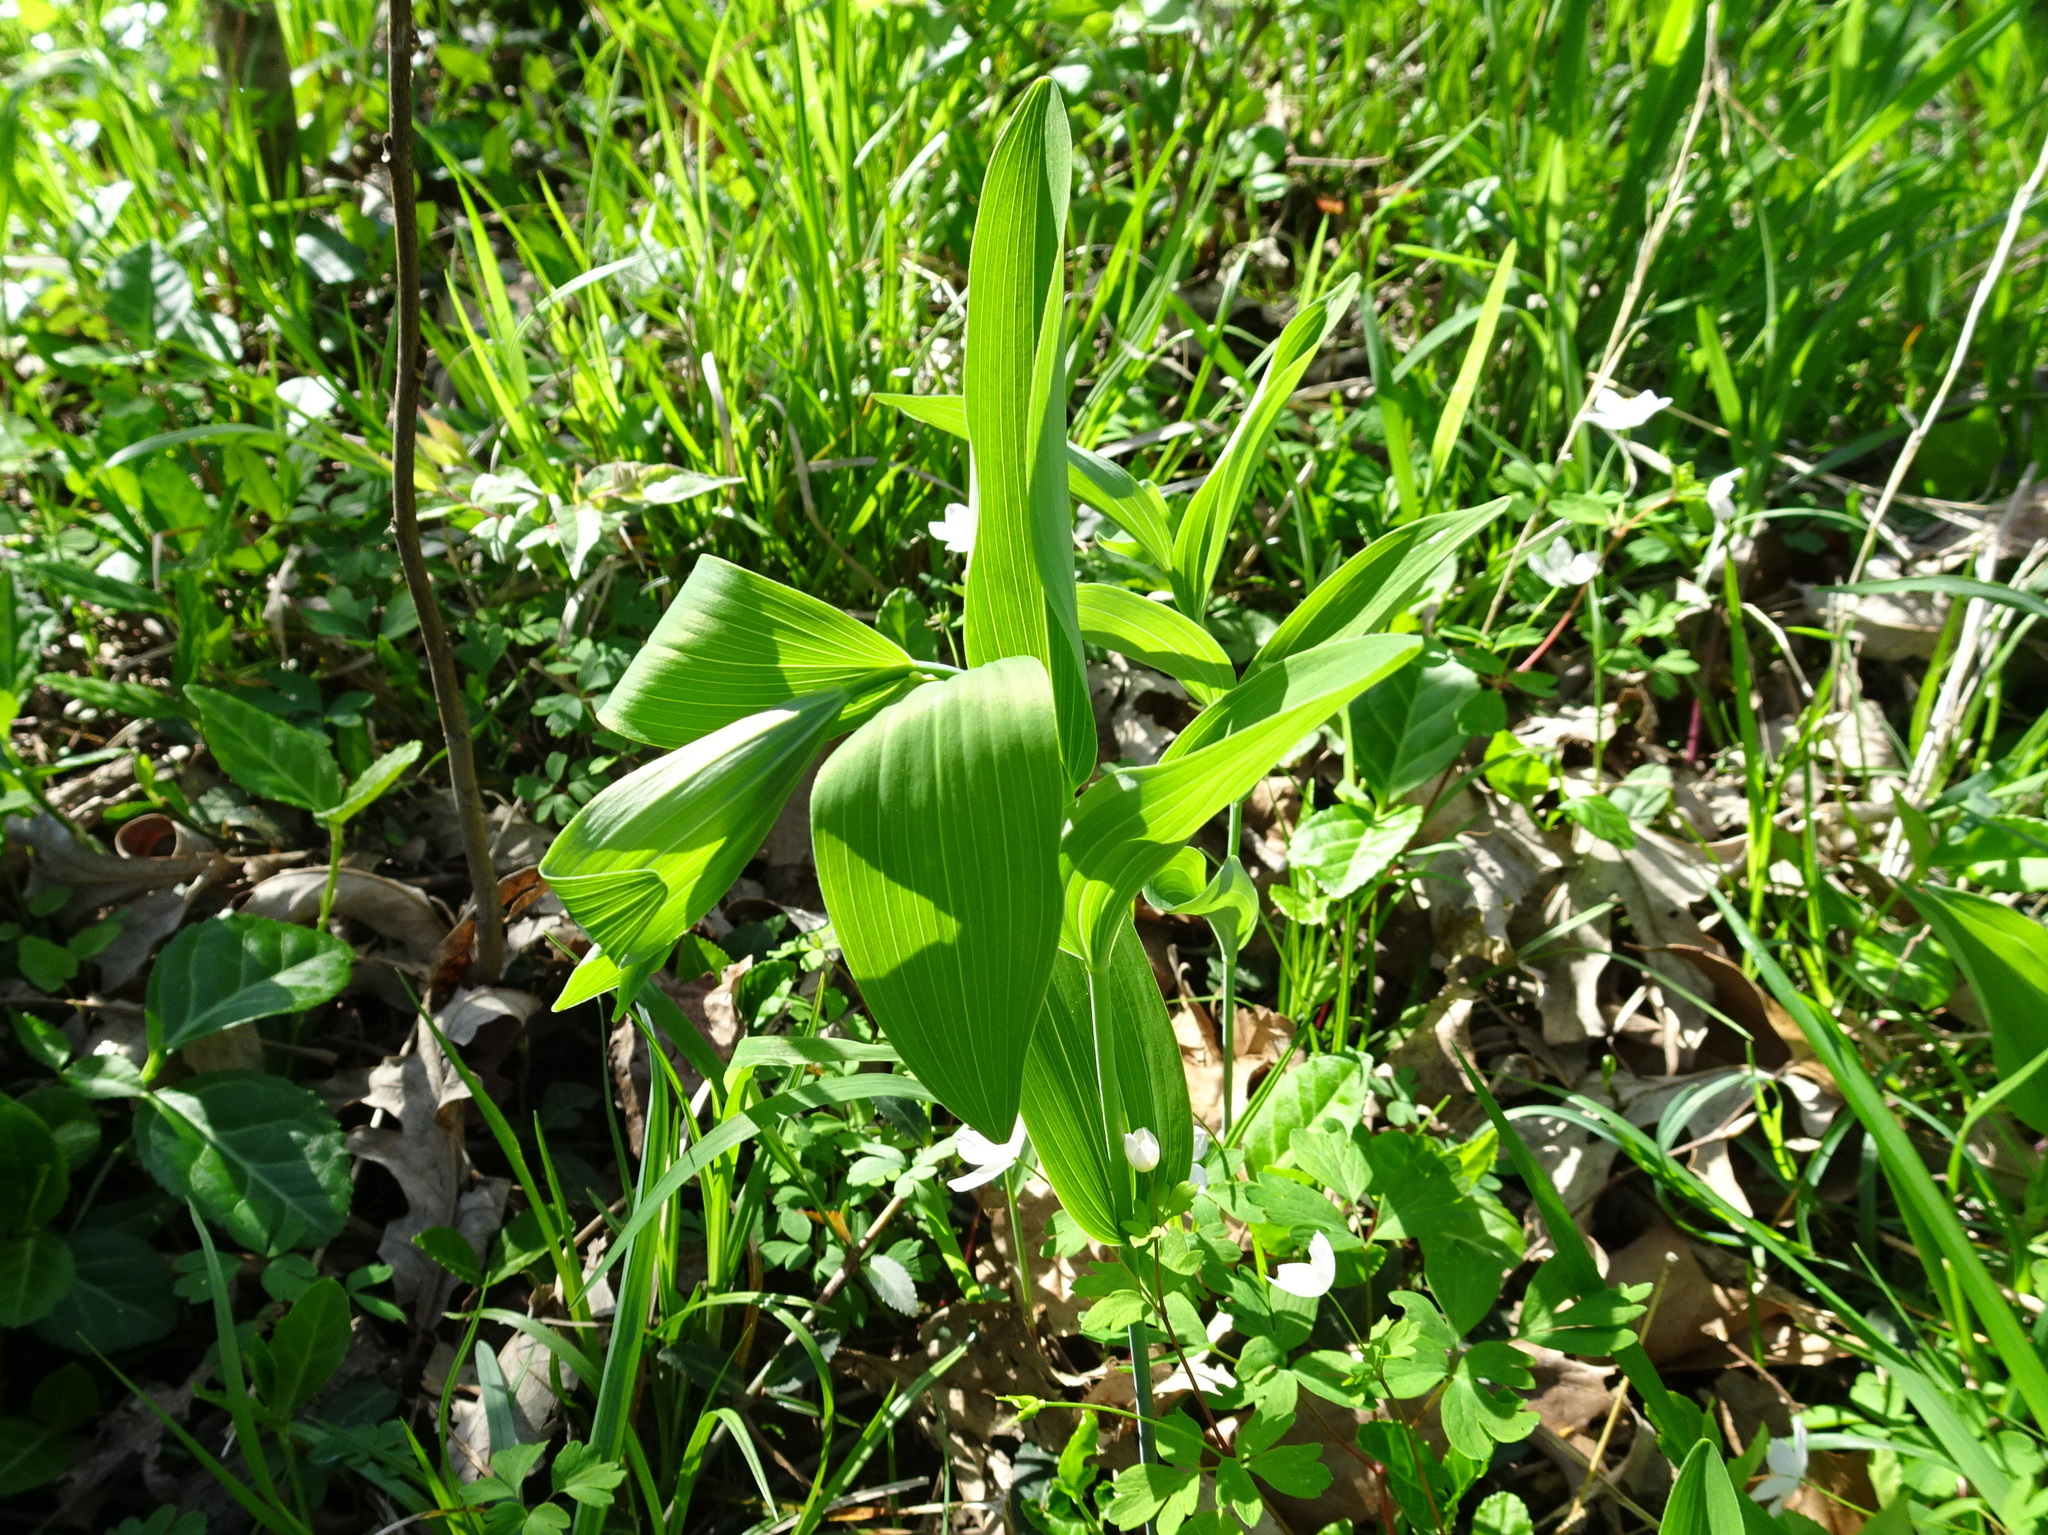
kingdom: Plantae
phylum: Tracheophyta
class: Liliopsida
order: Asparagales
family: Asparagaceae
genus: Polygonatum
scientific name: Polygonatum biflorum
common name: American solomon's-seal
